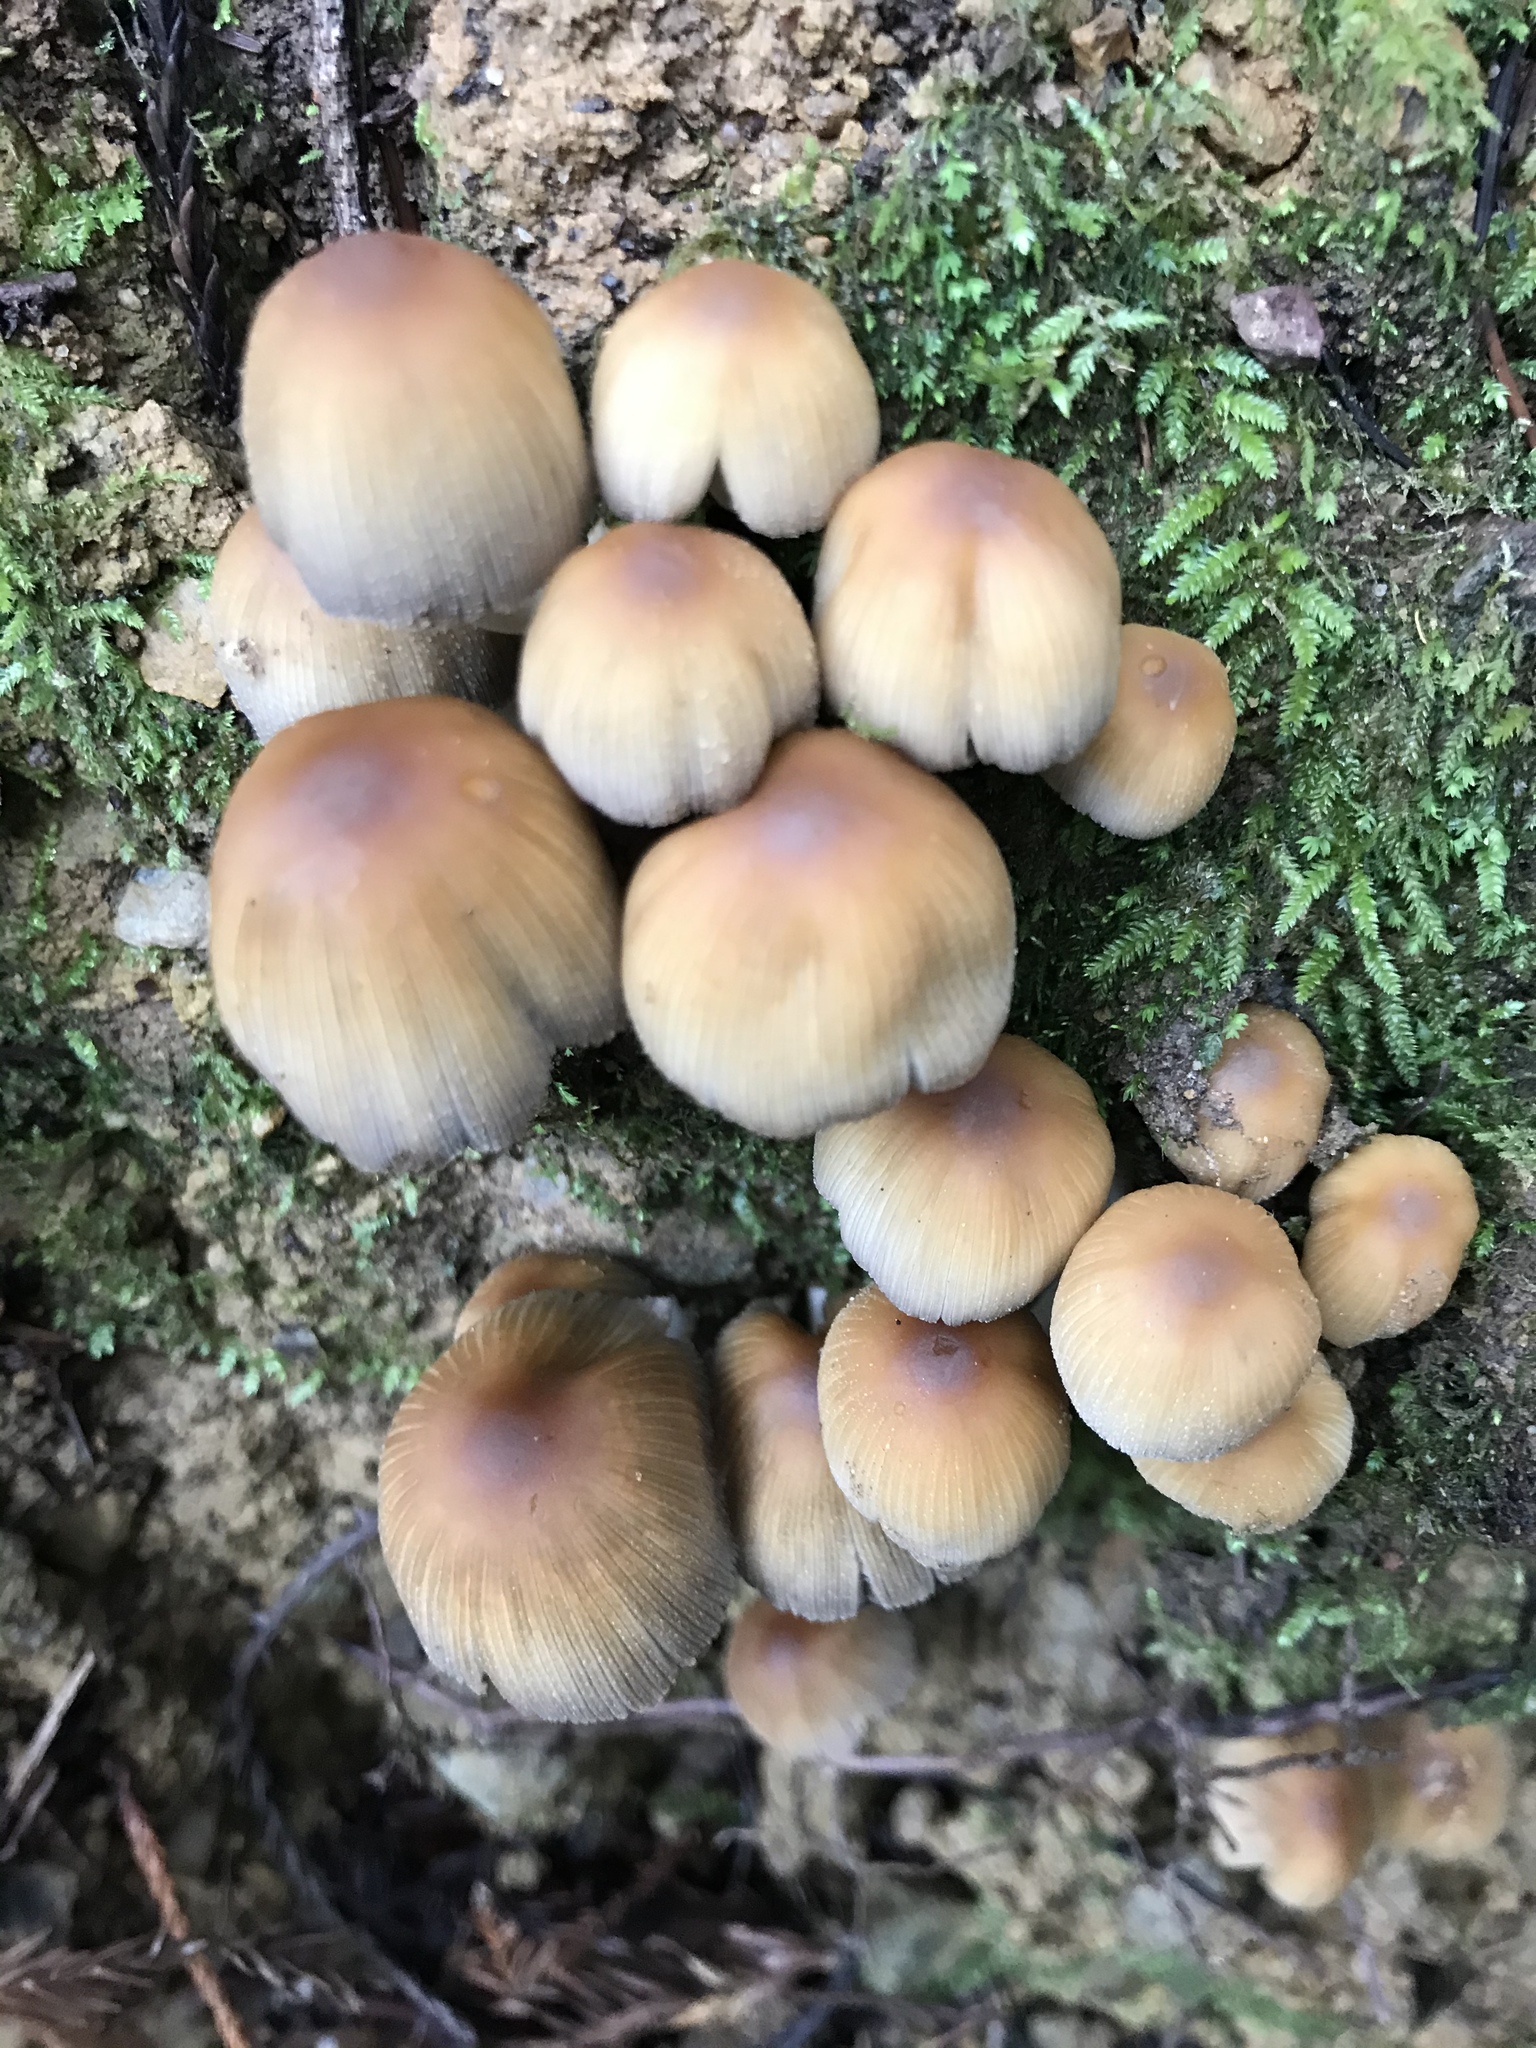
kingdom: Fungi
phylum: Basidiomycota
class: Agaricomycetes
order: Agaricales
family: Psathyrellaceae
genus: Coprinellus
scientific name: Coprinellus micaceus
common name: Glistening ink-cap
